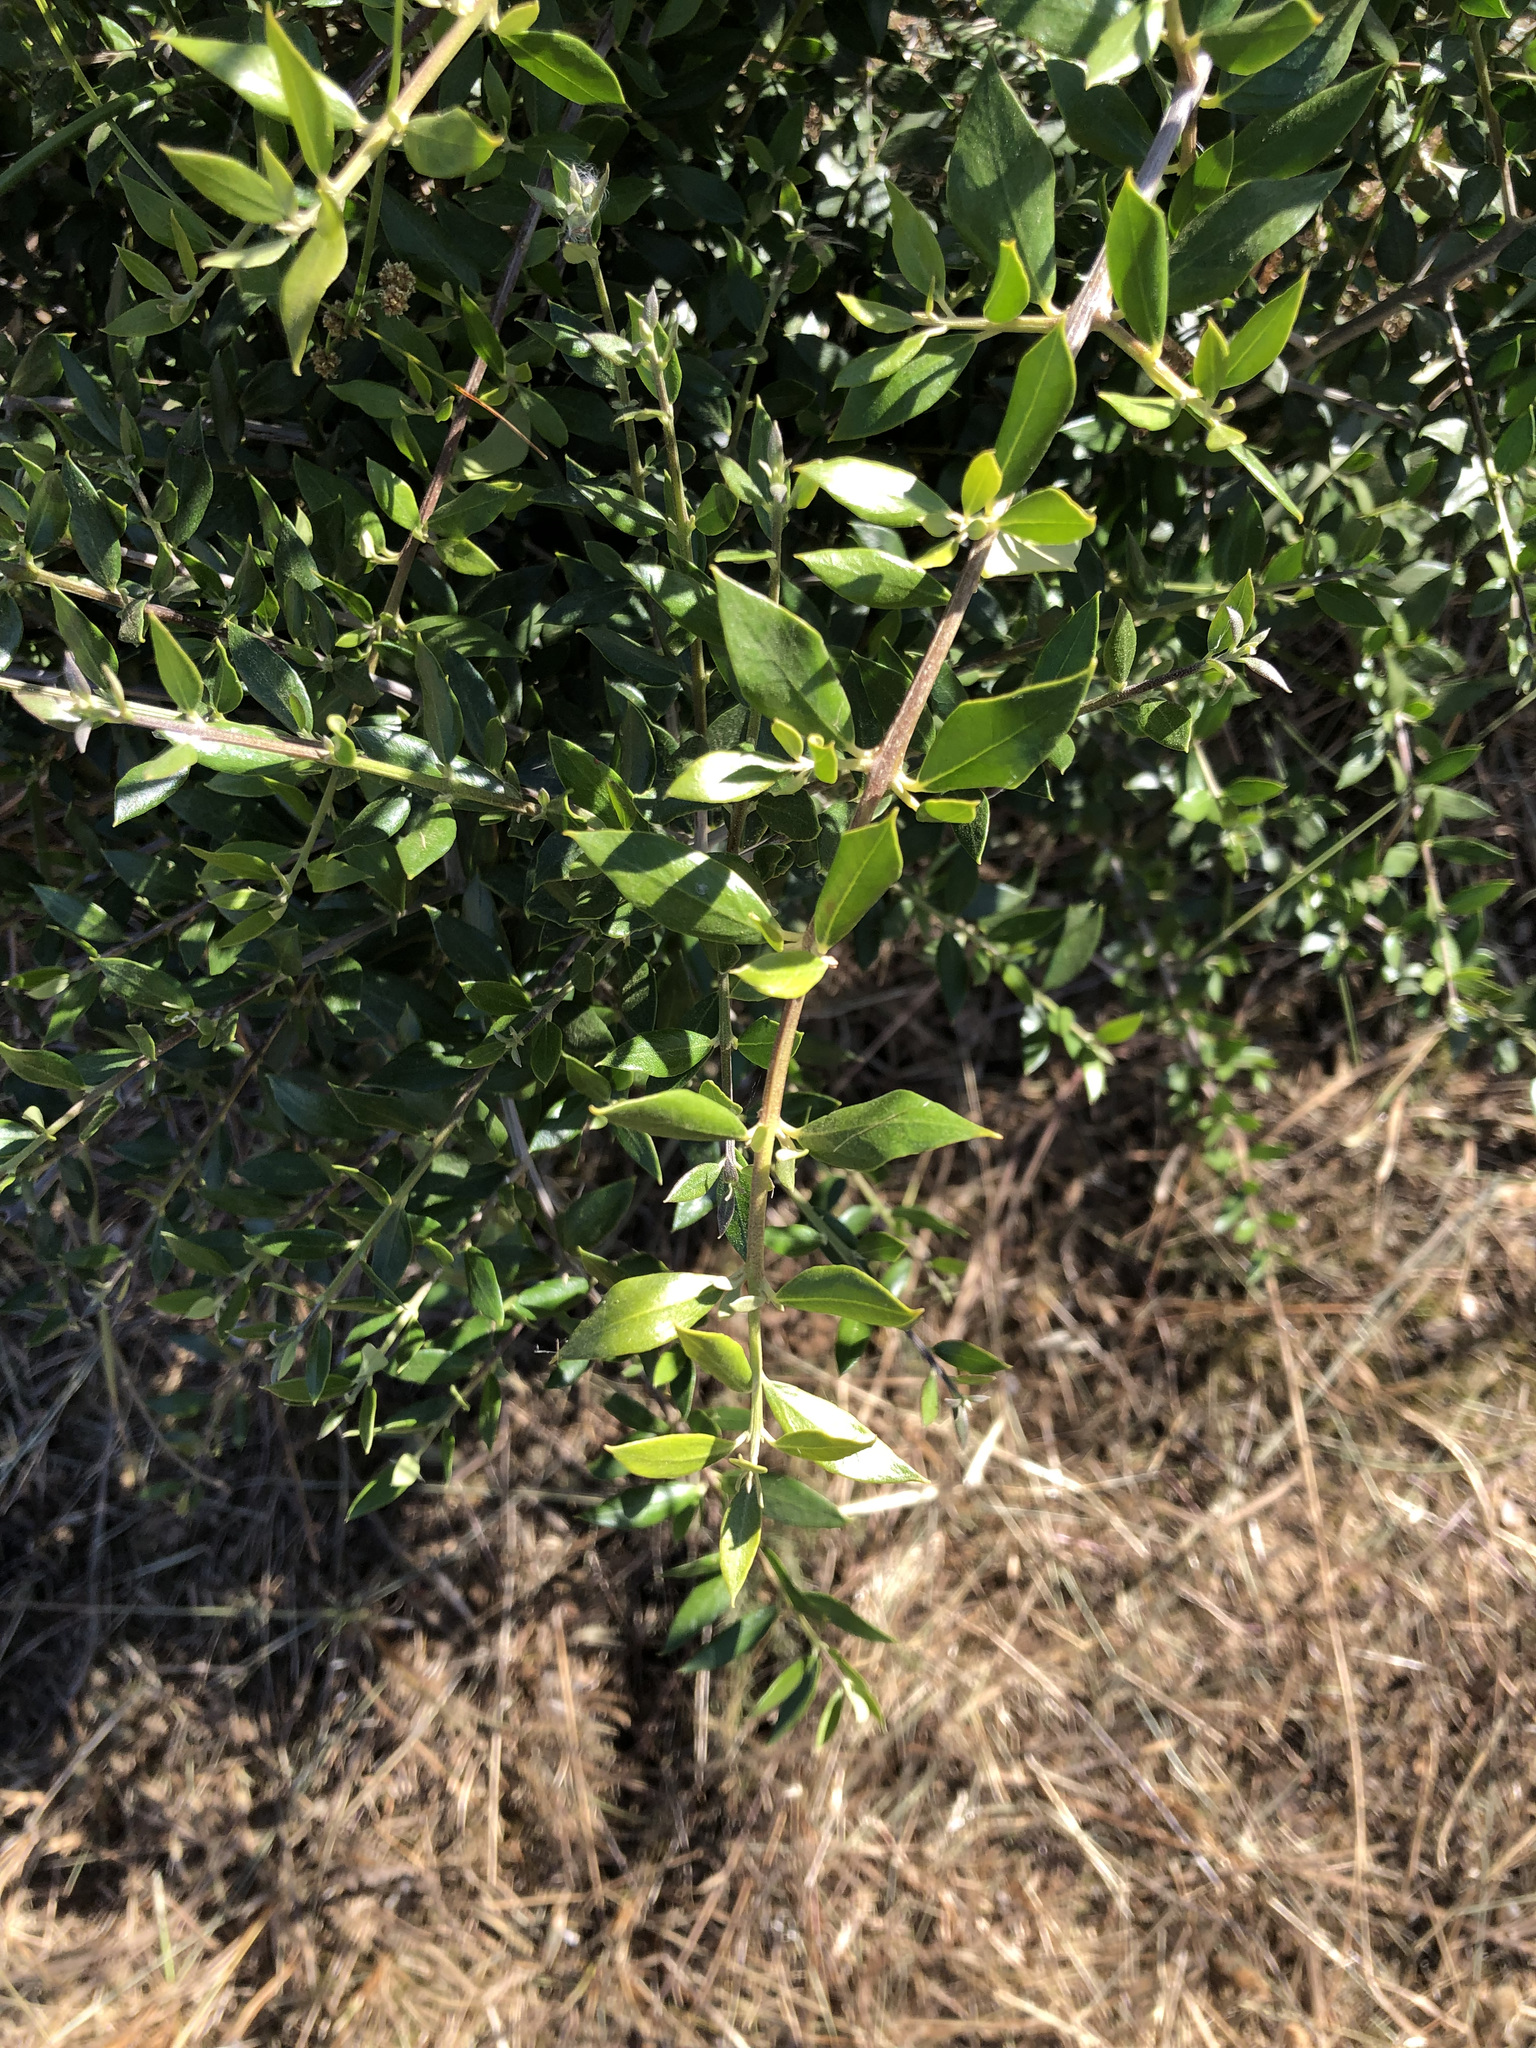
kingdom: Plantae
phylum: Tracheophyta
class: Magnoliopsida
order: Lamiales
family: Oleaceae
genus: Olea
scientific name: Olea europaea
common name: Olive
